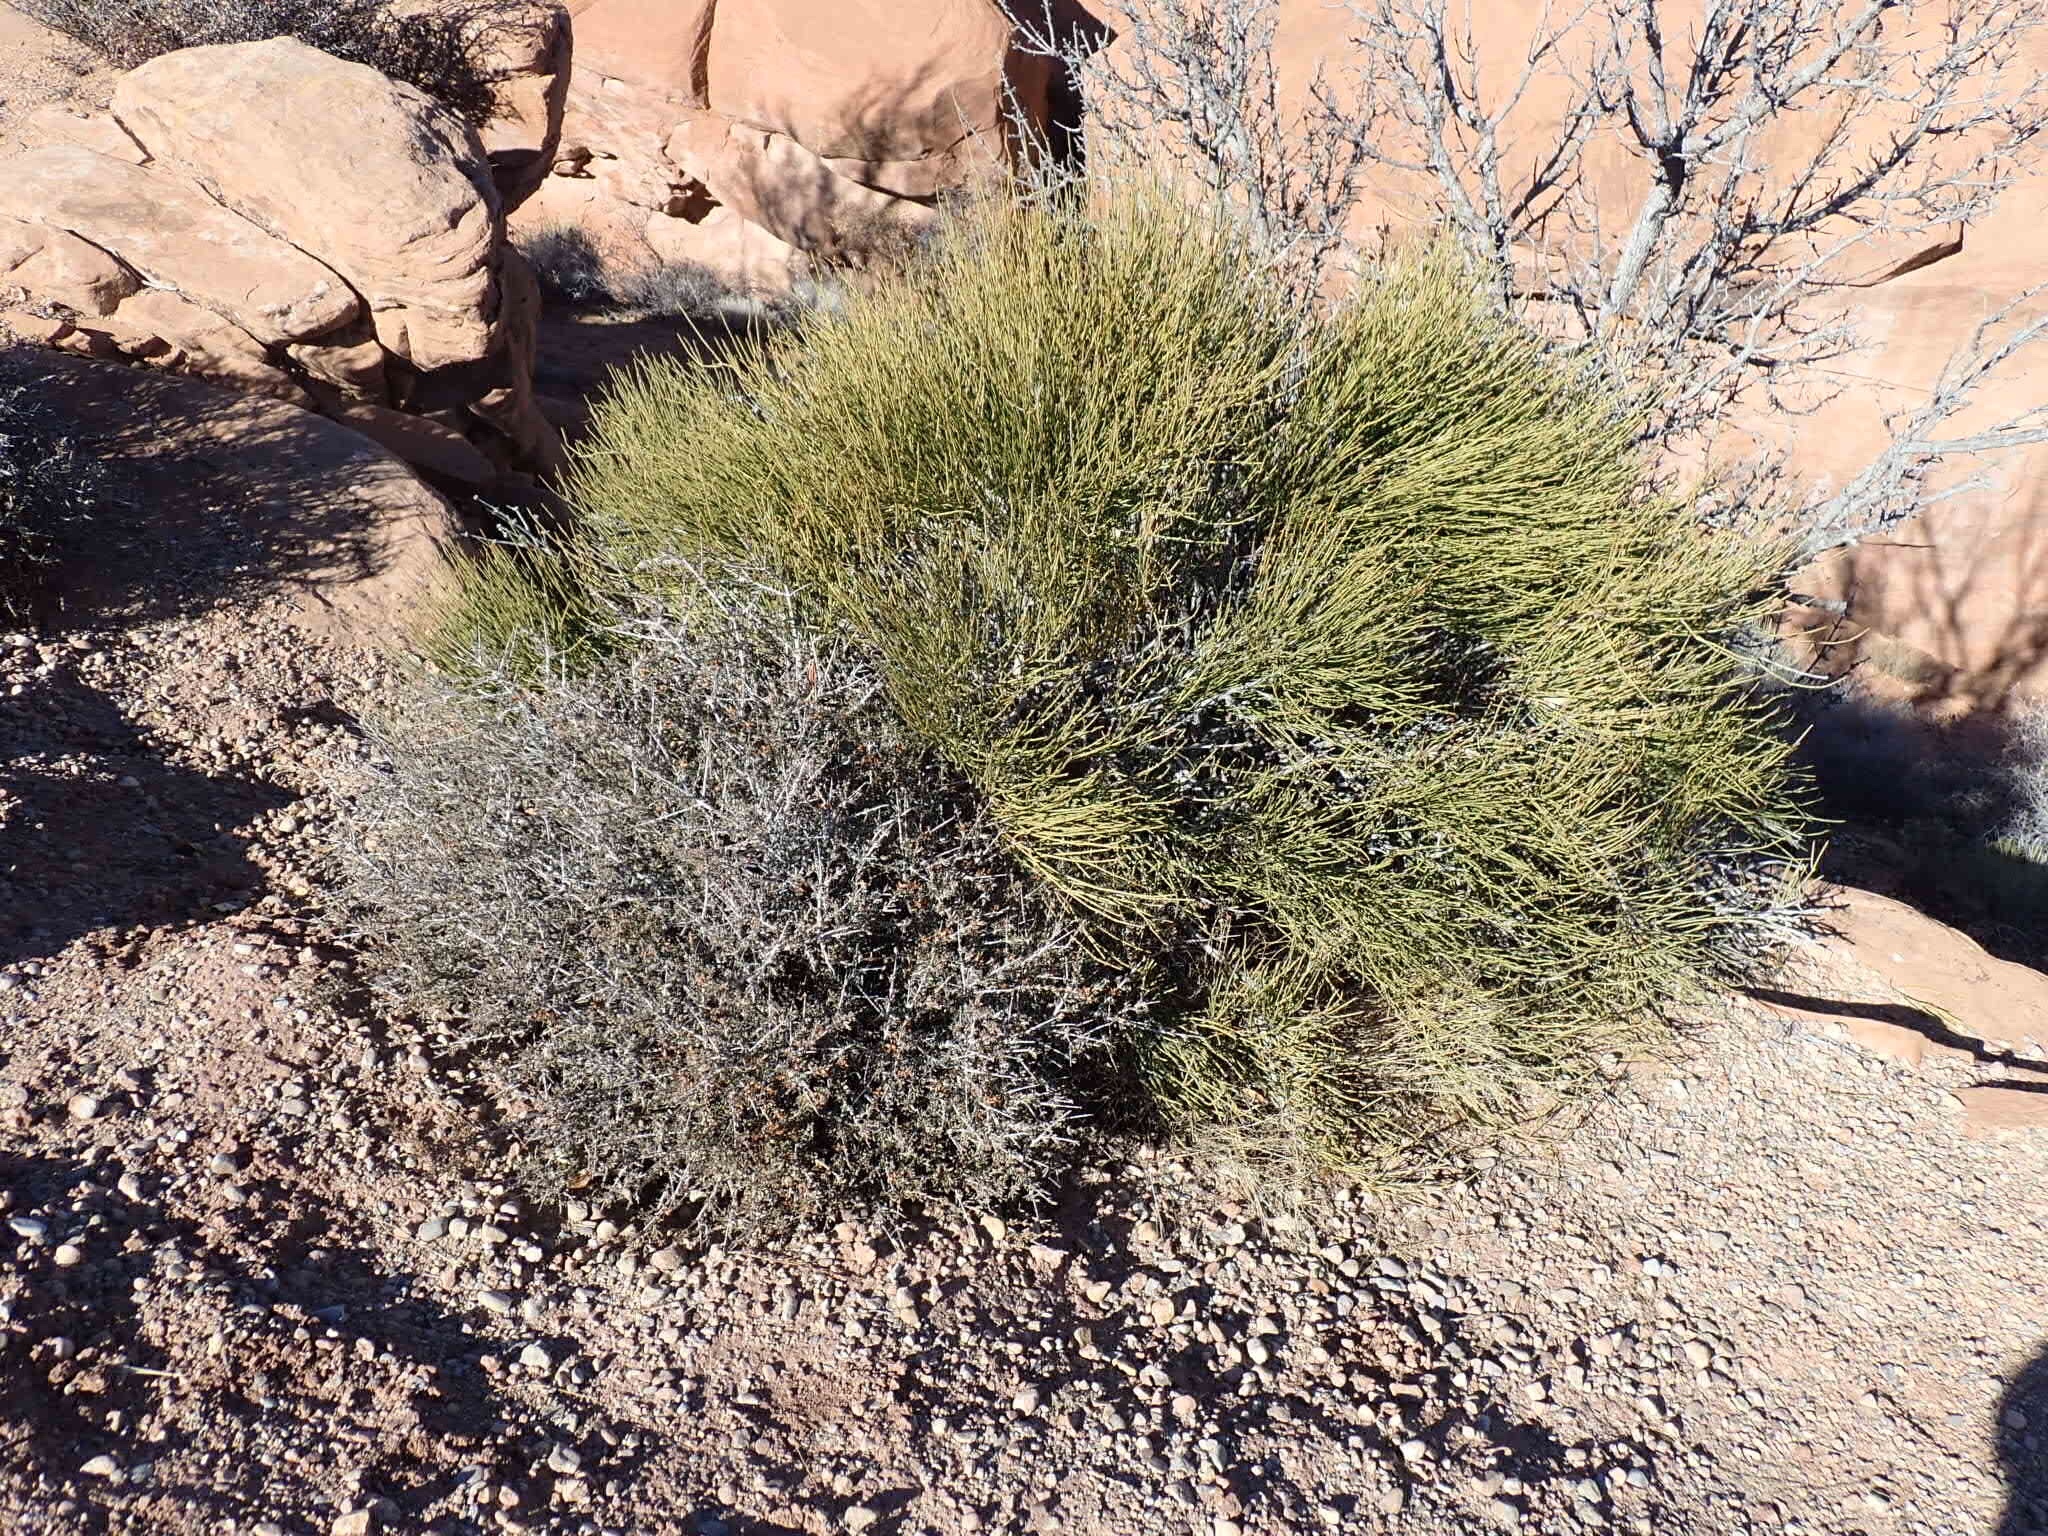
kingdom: Plantae
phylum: Tracheophyta
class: Gnetopsida
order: Ephedrales
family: Ephedraceae
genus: Ephedra
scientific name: Ephedra torreyana
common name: Torrey ephedra
